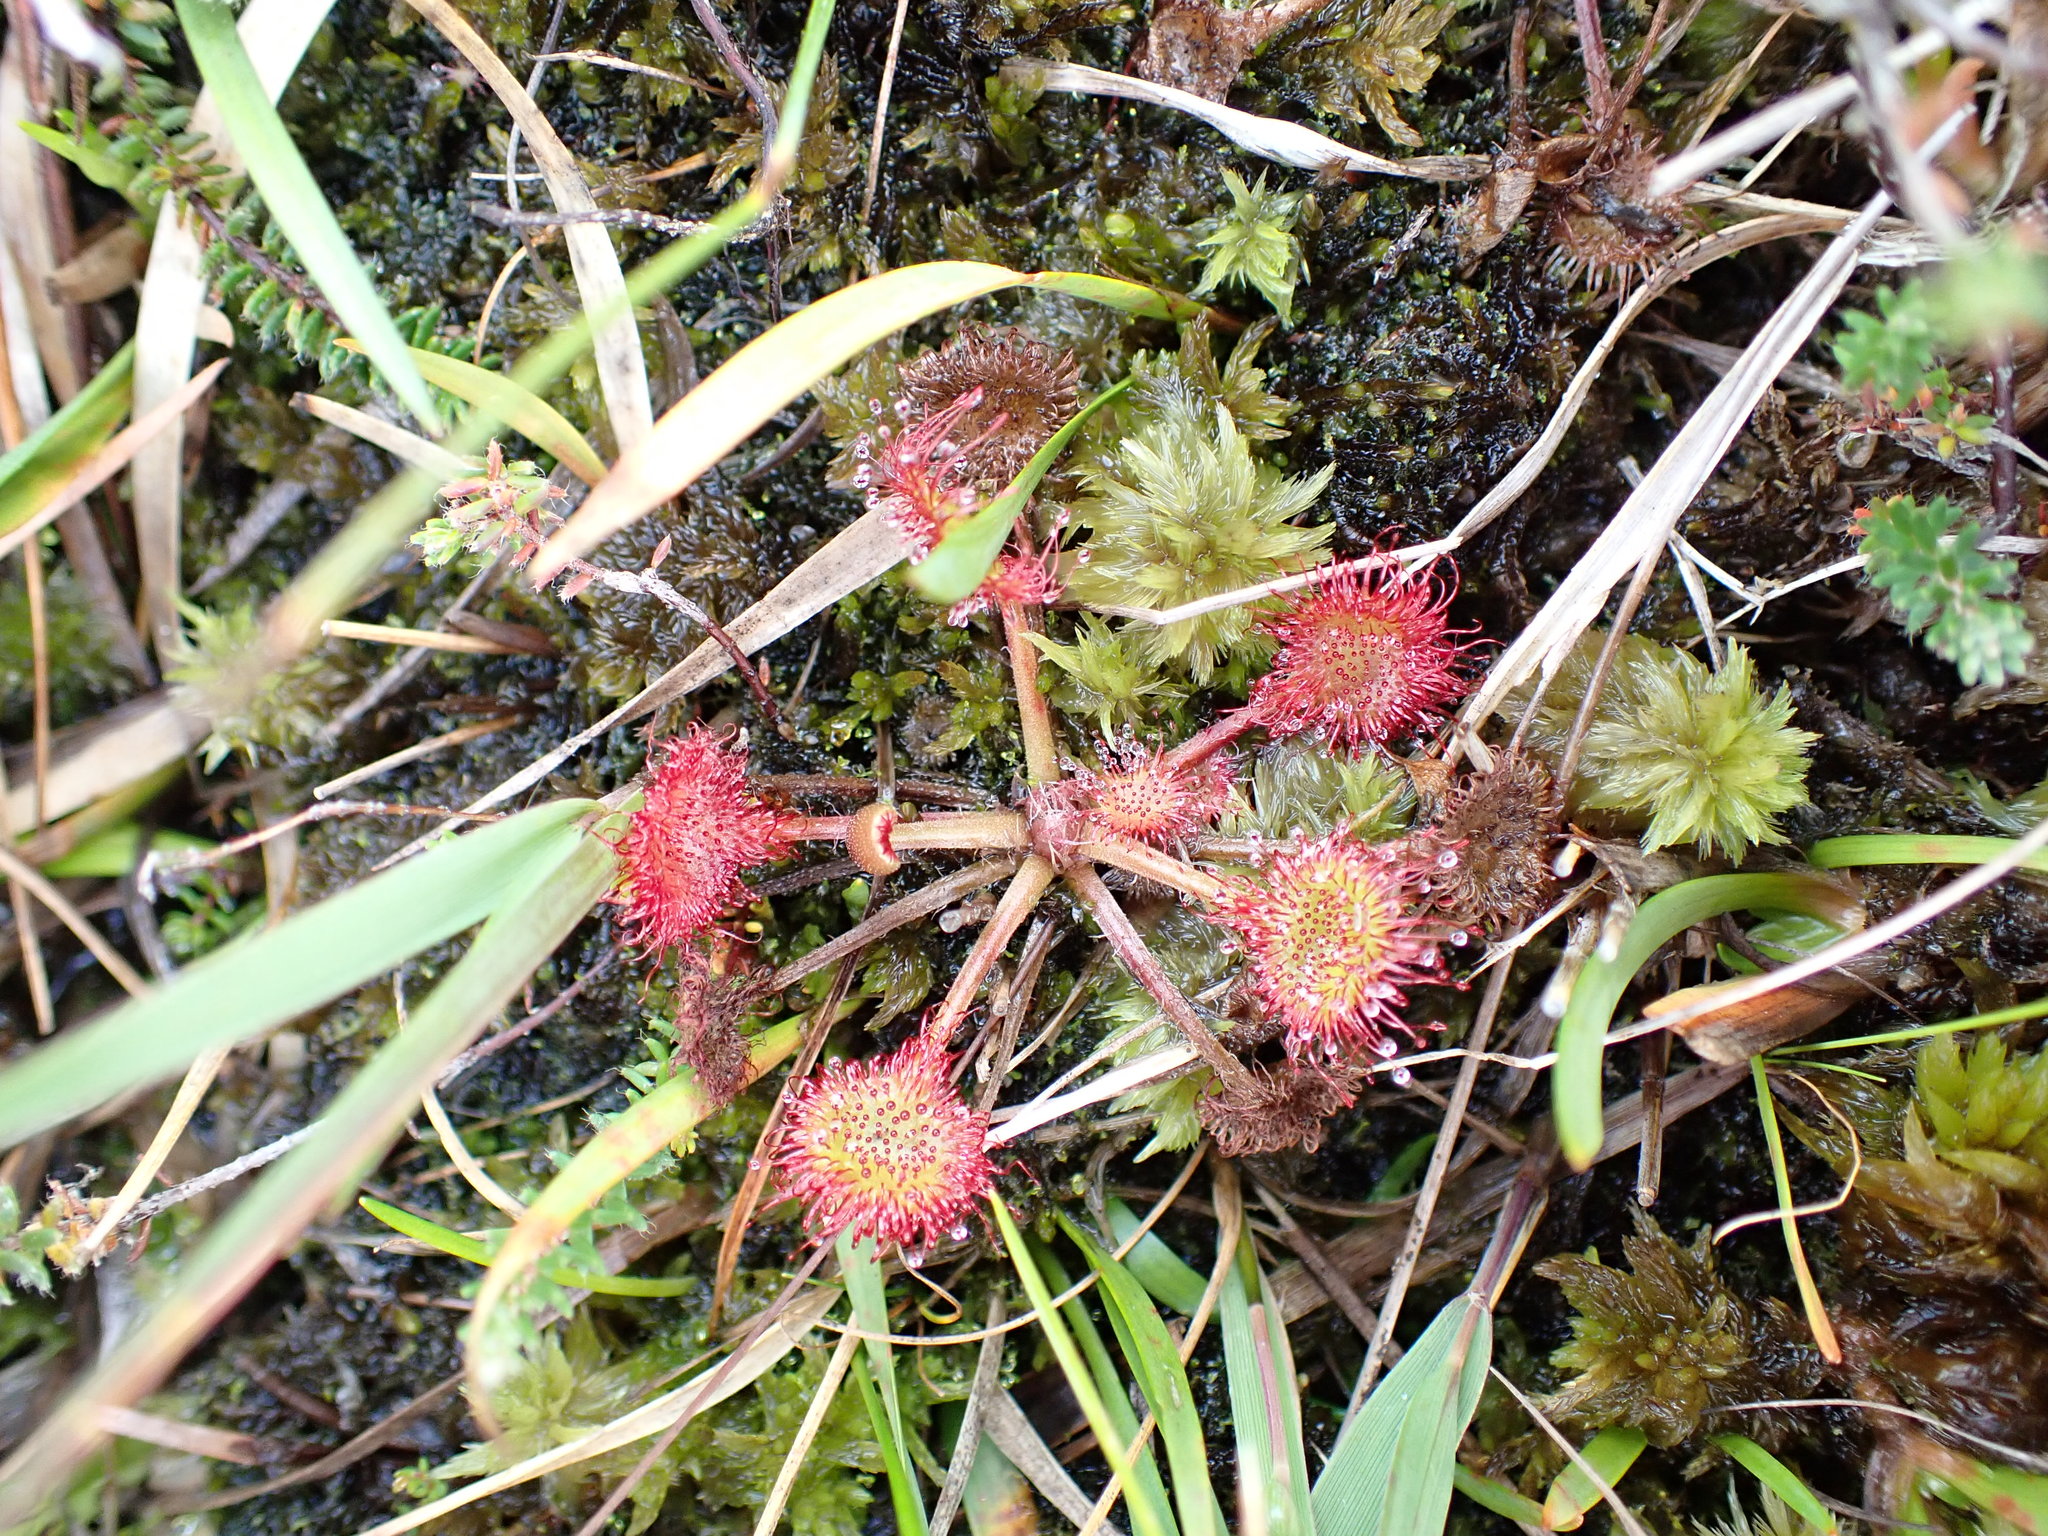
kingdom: Plantae
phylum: Tracheophyta
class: Magnoliopsida
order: Caryophyllales
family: Droseraceae
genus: Drosera
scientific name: Drosera rotundifolia
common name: Round-leaved sundew
